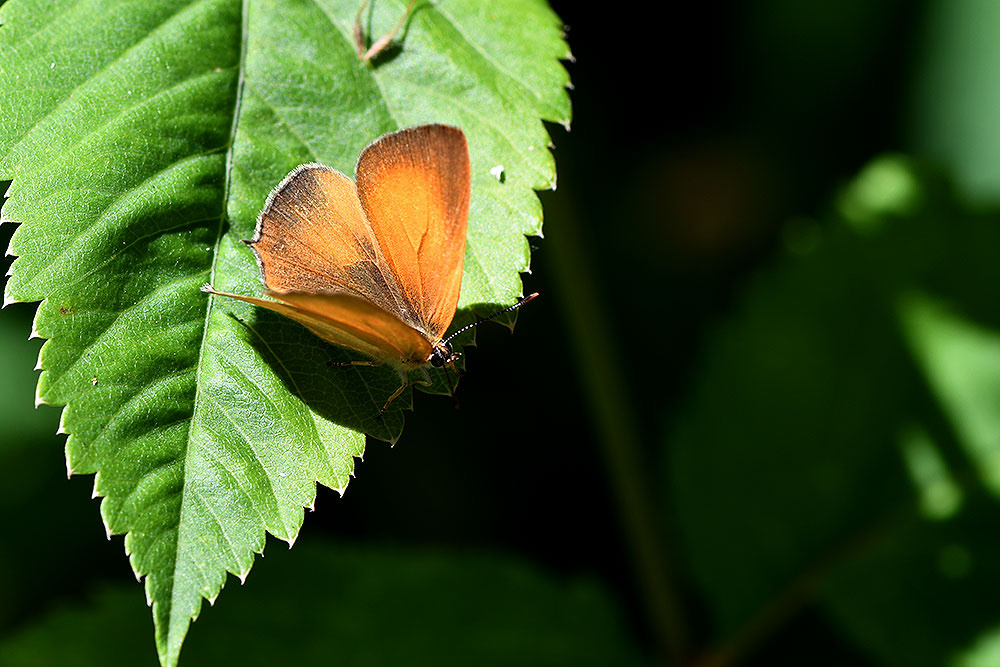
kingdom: Animalia
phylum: Arthropoda
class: Insecta
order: Lepidoptera
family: Lycaenidae
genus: Habrodais
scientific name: Habrodais grunus
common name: Golden hairstreak
